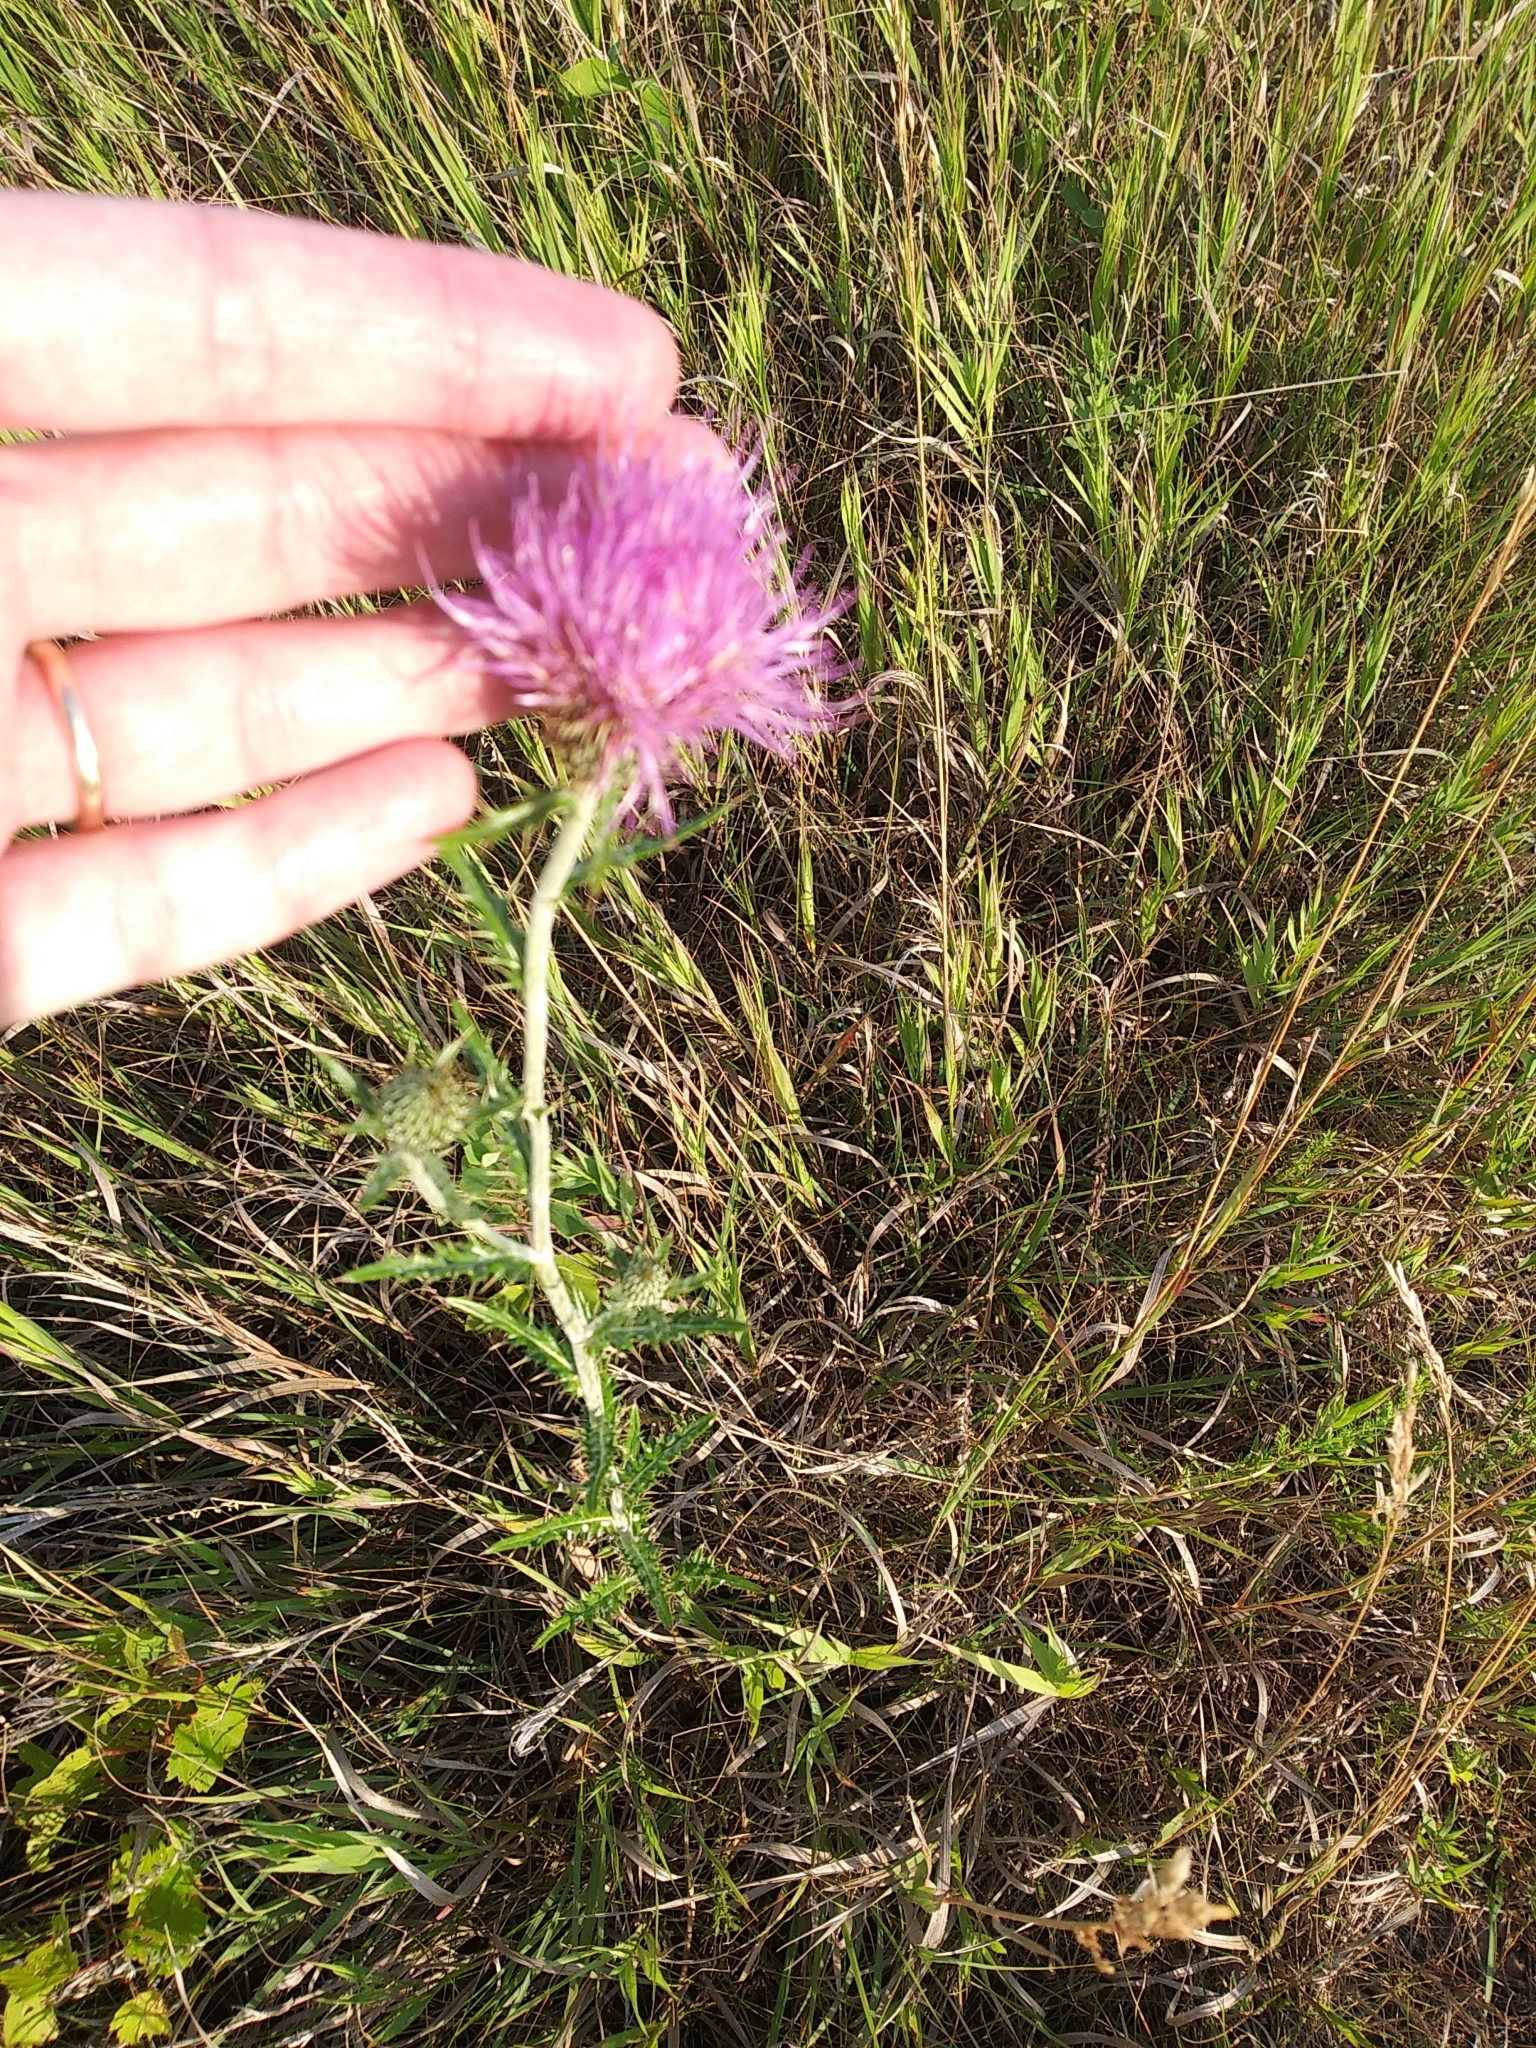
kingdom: Plantae
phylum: Tracheophyta
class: Magnoliopsida
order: Asterales
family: Asteraceae
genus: Cirsium
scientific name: Cirsium flodmanii
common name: Flodman's thistle
